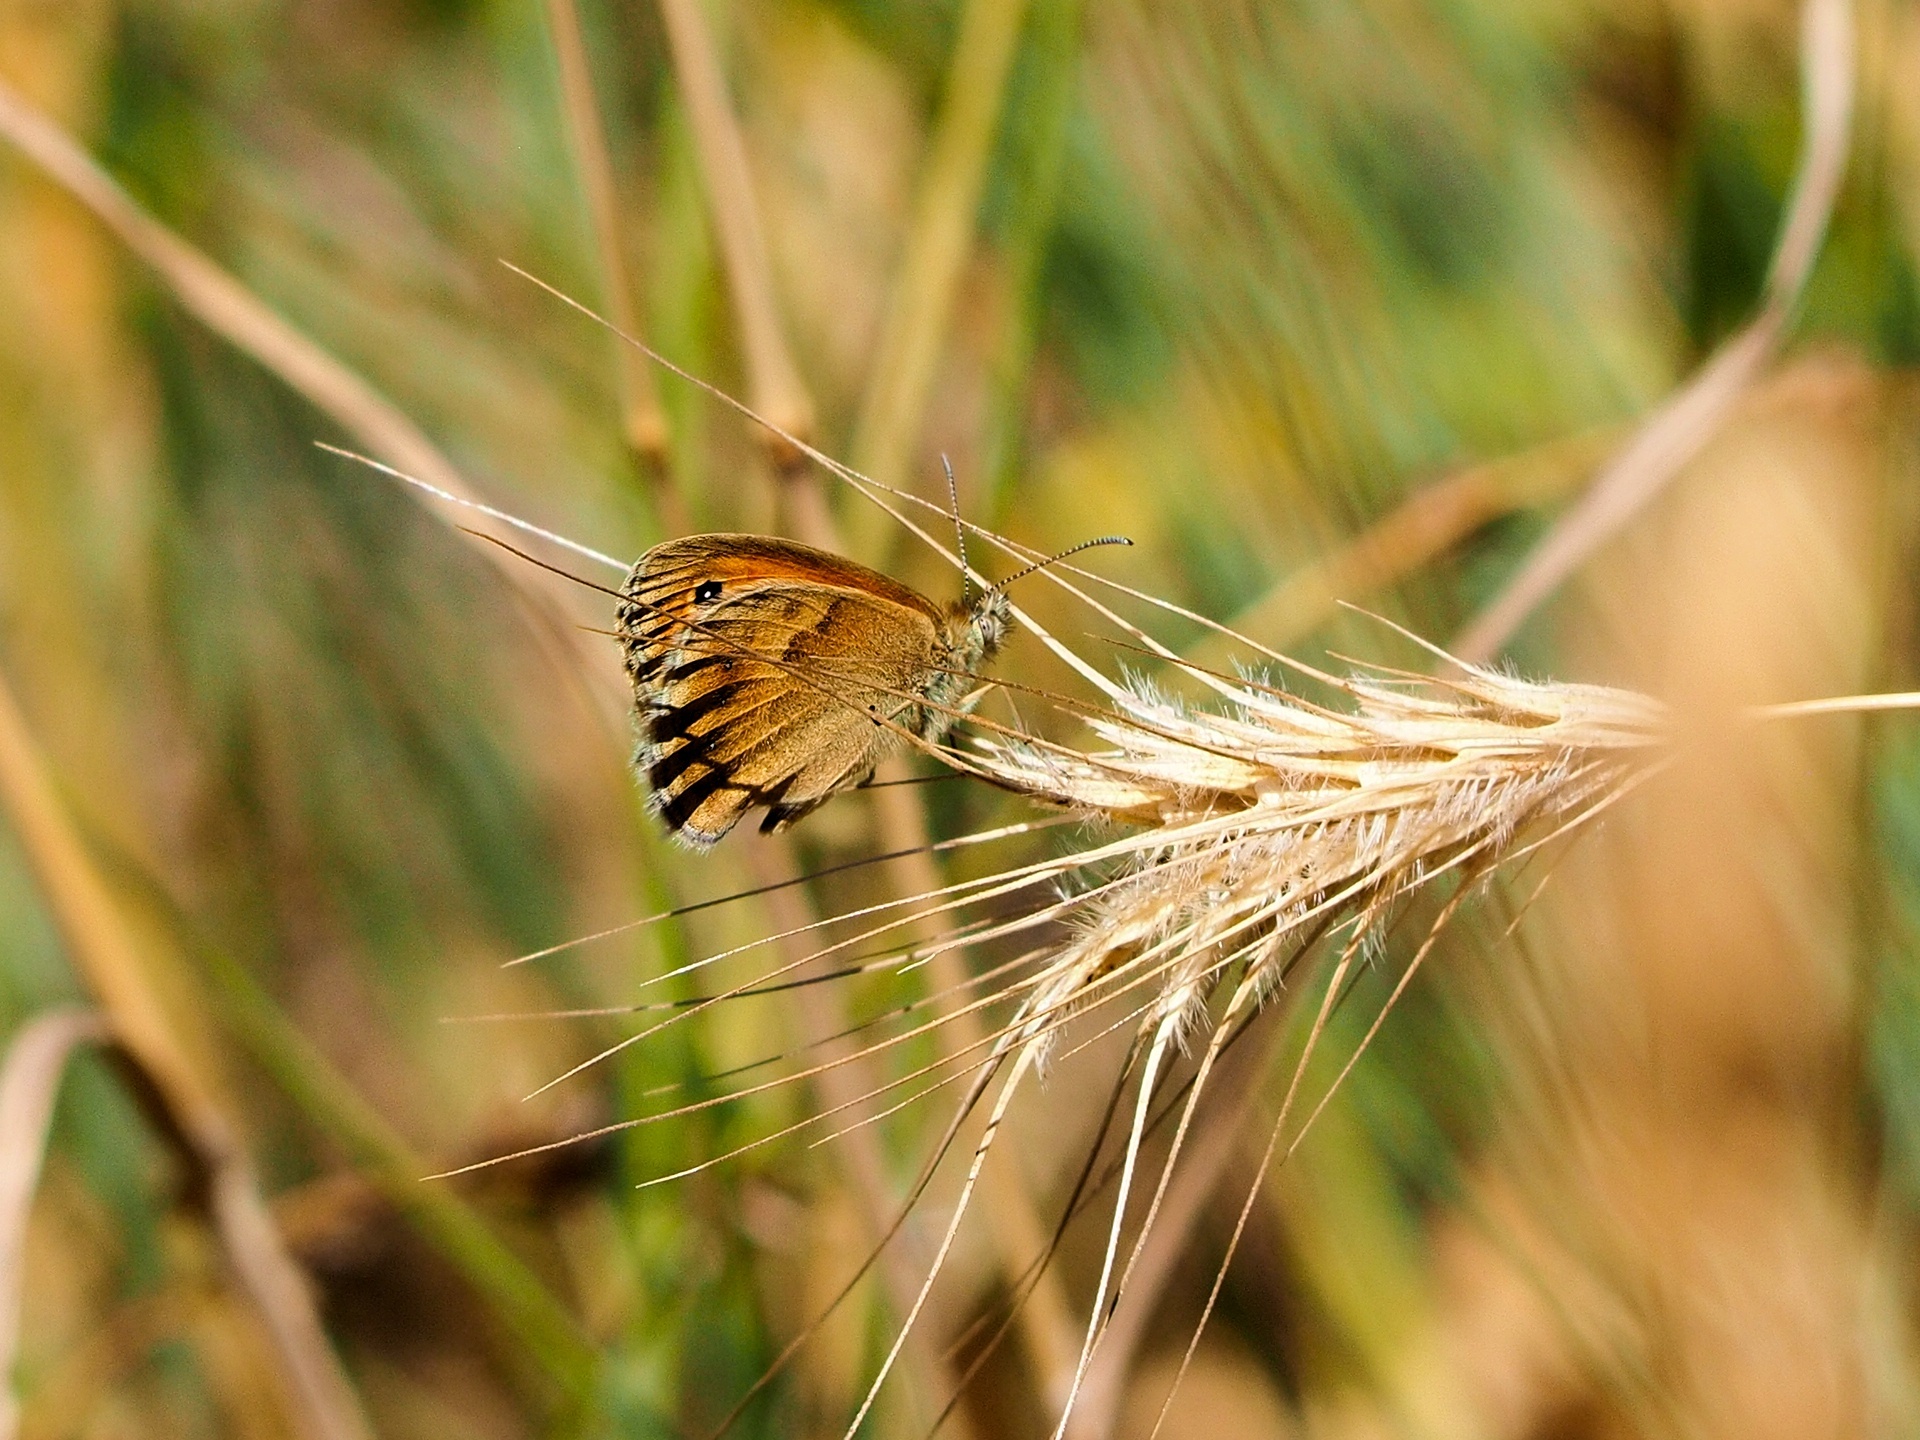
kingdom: Animalia
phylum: Arthropoda
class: Insecta
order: Lepidoptera
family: Nymphalidae
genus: Coenonympha
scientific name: Coenonympha pamphilus
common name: Small heath
